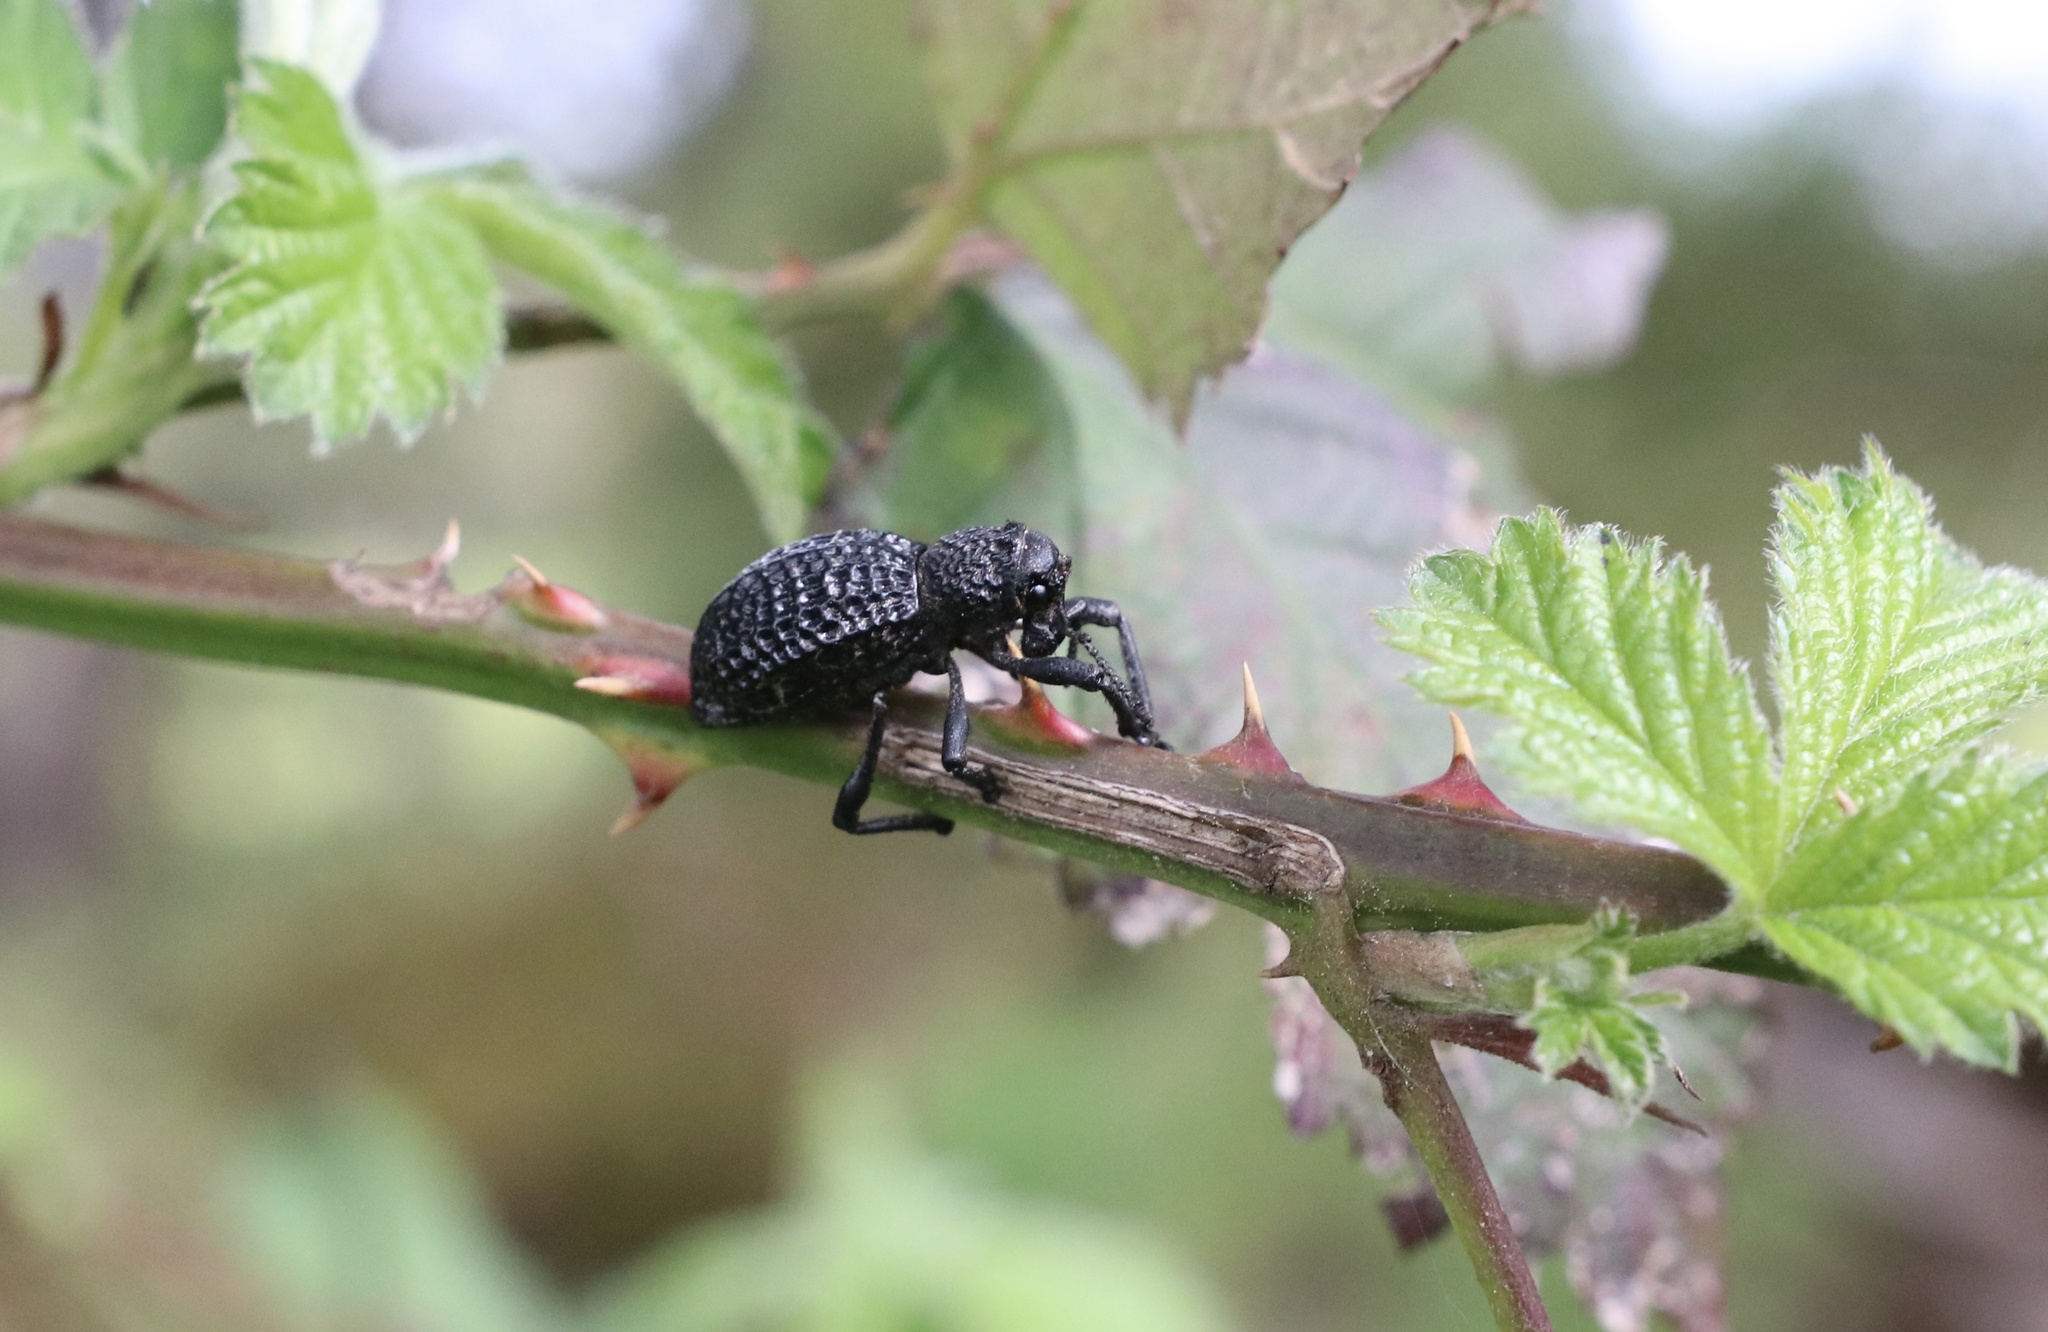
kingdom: Animalia
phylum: Arthropoda
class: Insecta
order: Coleoptera
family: Curculionidae
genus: Aegorhinus
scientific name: Aegorhinus superciliosus
